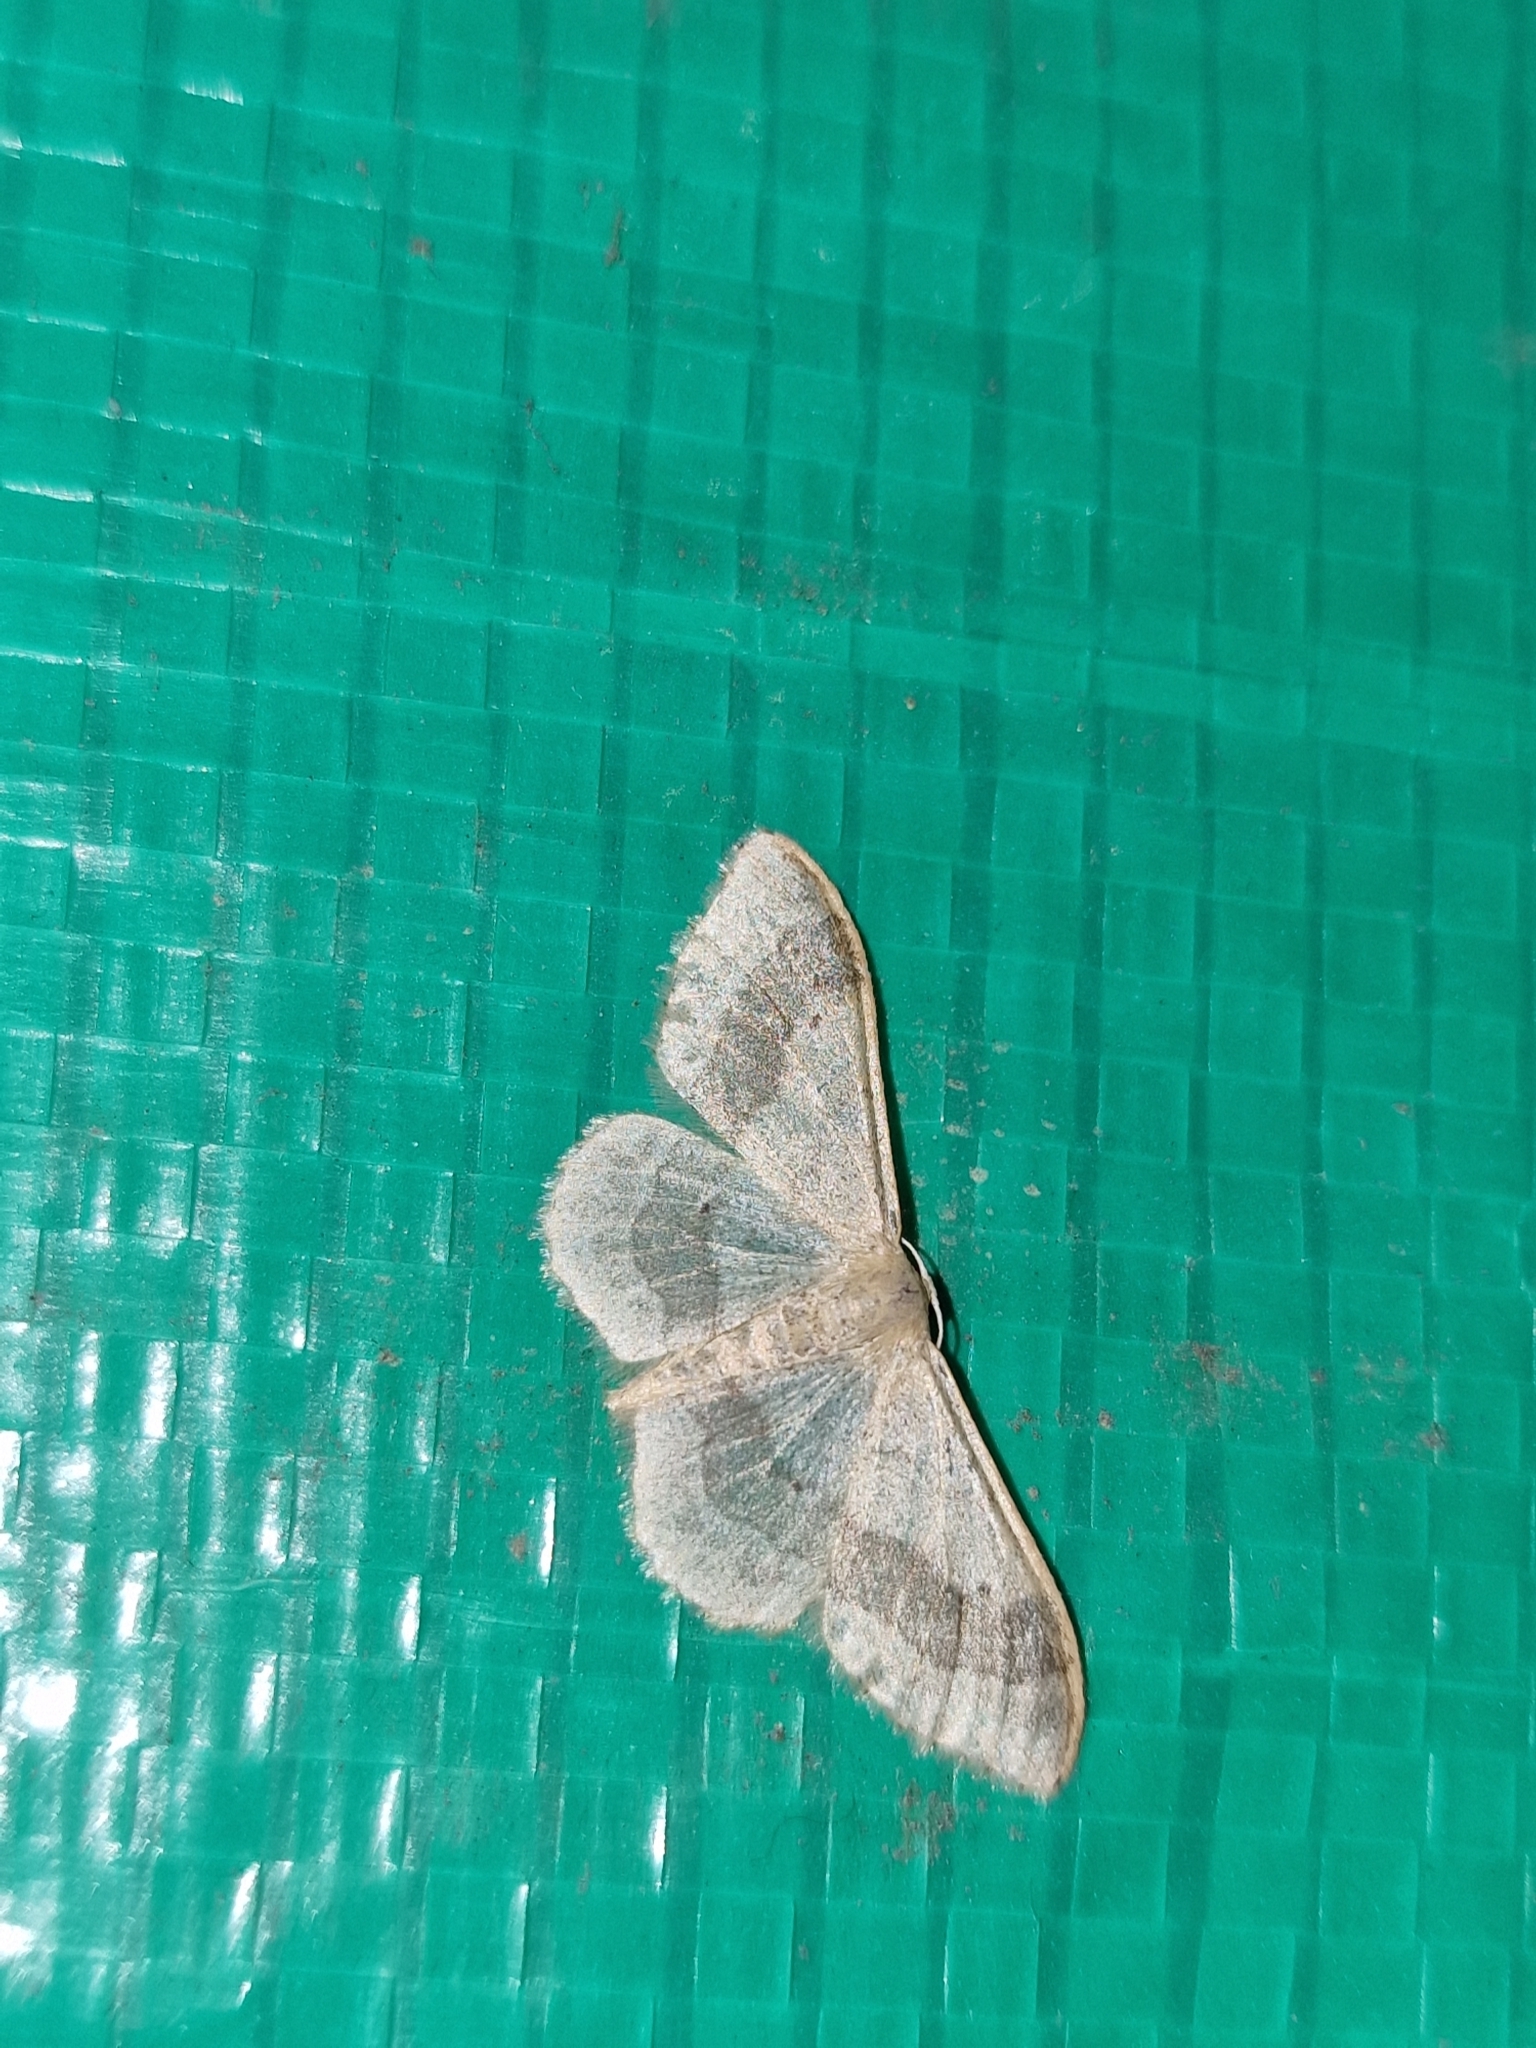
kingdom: Animalia
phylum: Arthropoda
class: Insecta
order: Lepidoptera
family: Geometridae
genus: Idaea
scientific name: Idaea aversata
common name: Riband wave
